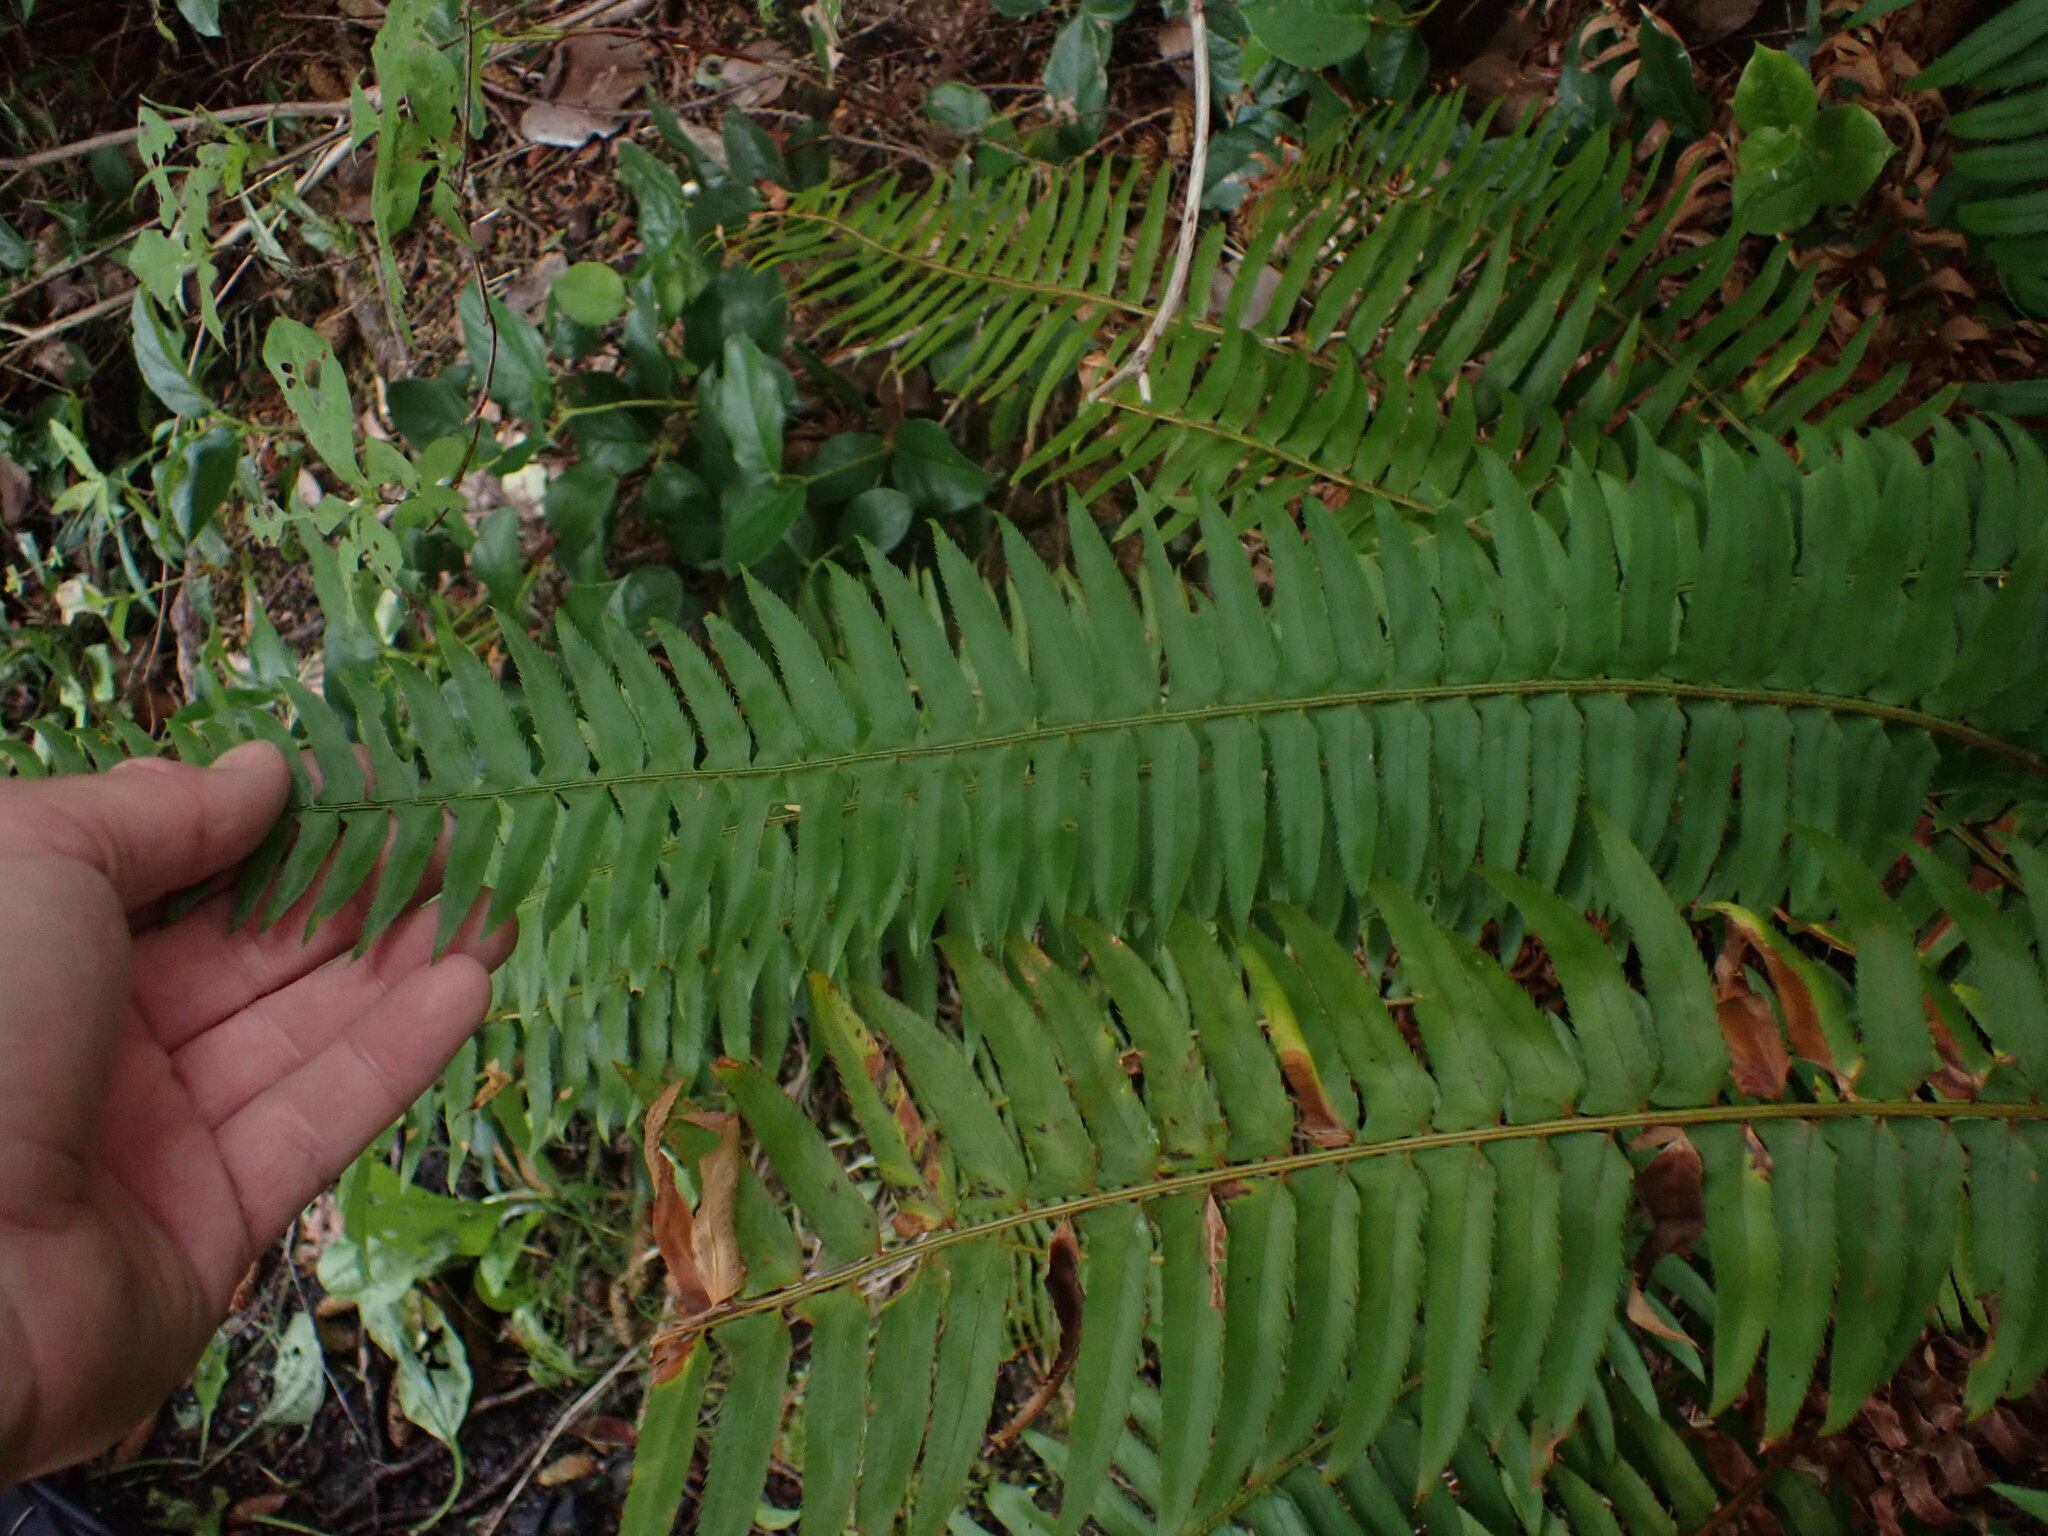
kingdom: Plantae
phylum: Tracheophyta
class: Polypodiopsida
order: Polypodiales
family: Dryopteridaceae
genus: Polystichum
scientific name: Polystichum munitum
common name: Western sword-fern
